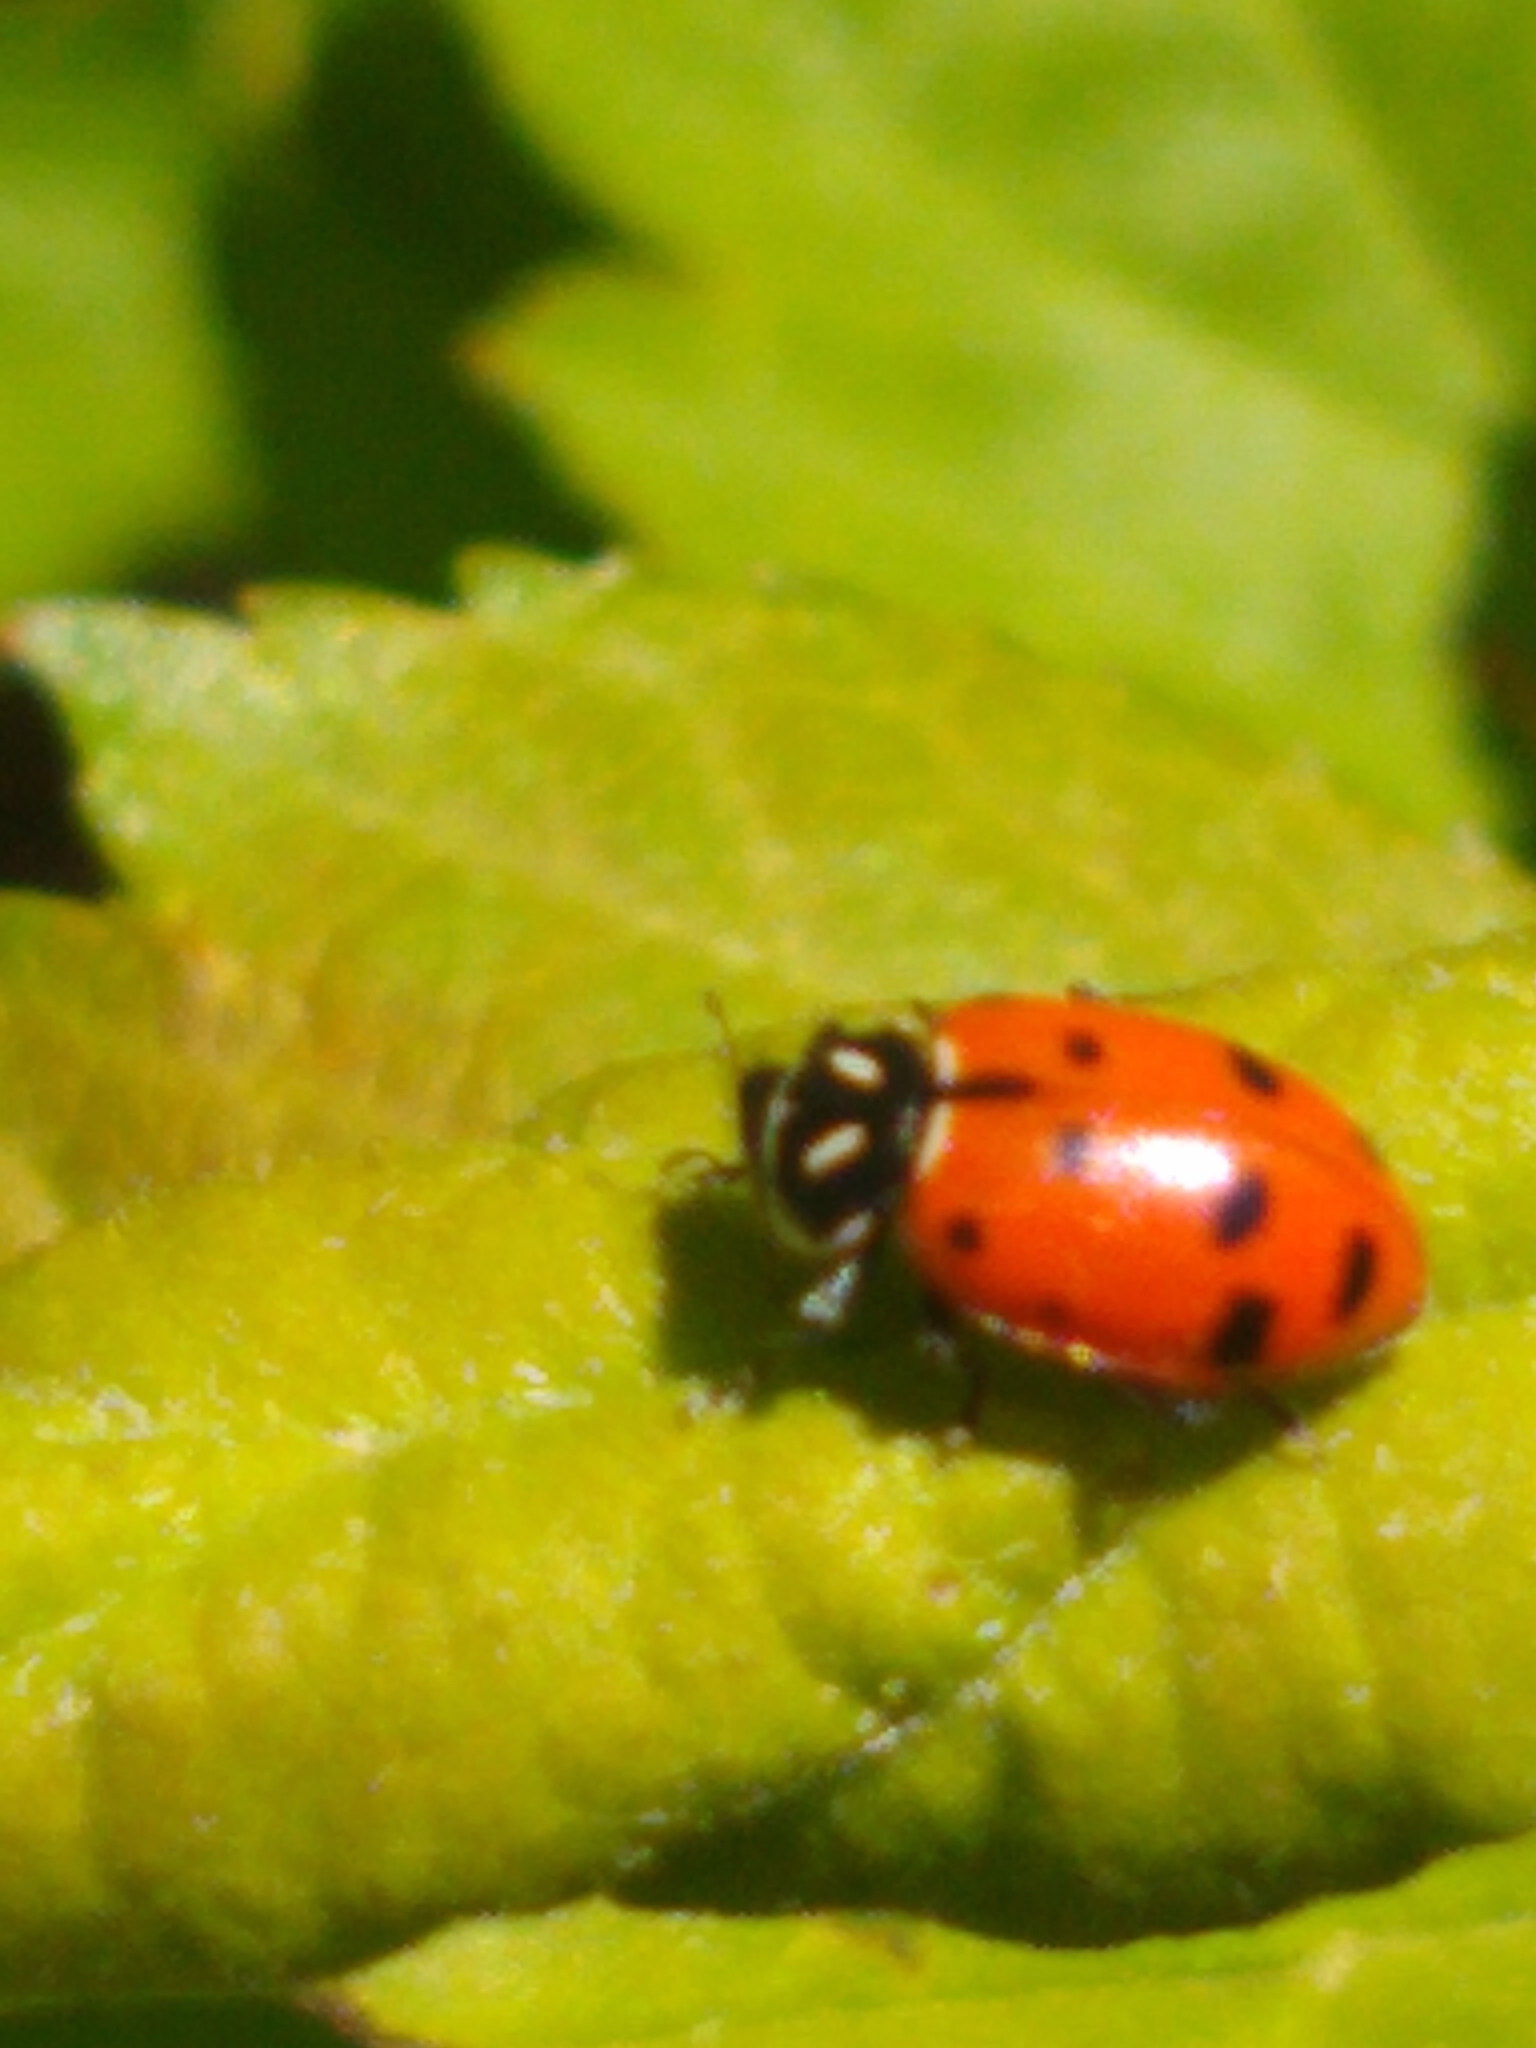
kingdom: Animalia
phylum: Arthropoda
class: Insecta
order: Coleoptera
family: Coccinellidae
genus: Hippodamia
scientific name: Hippodamia convergens
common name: Convergent lady beetle
